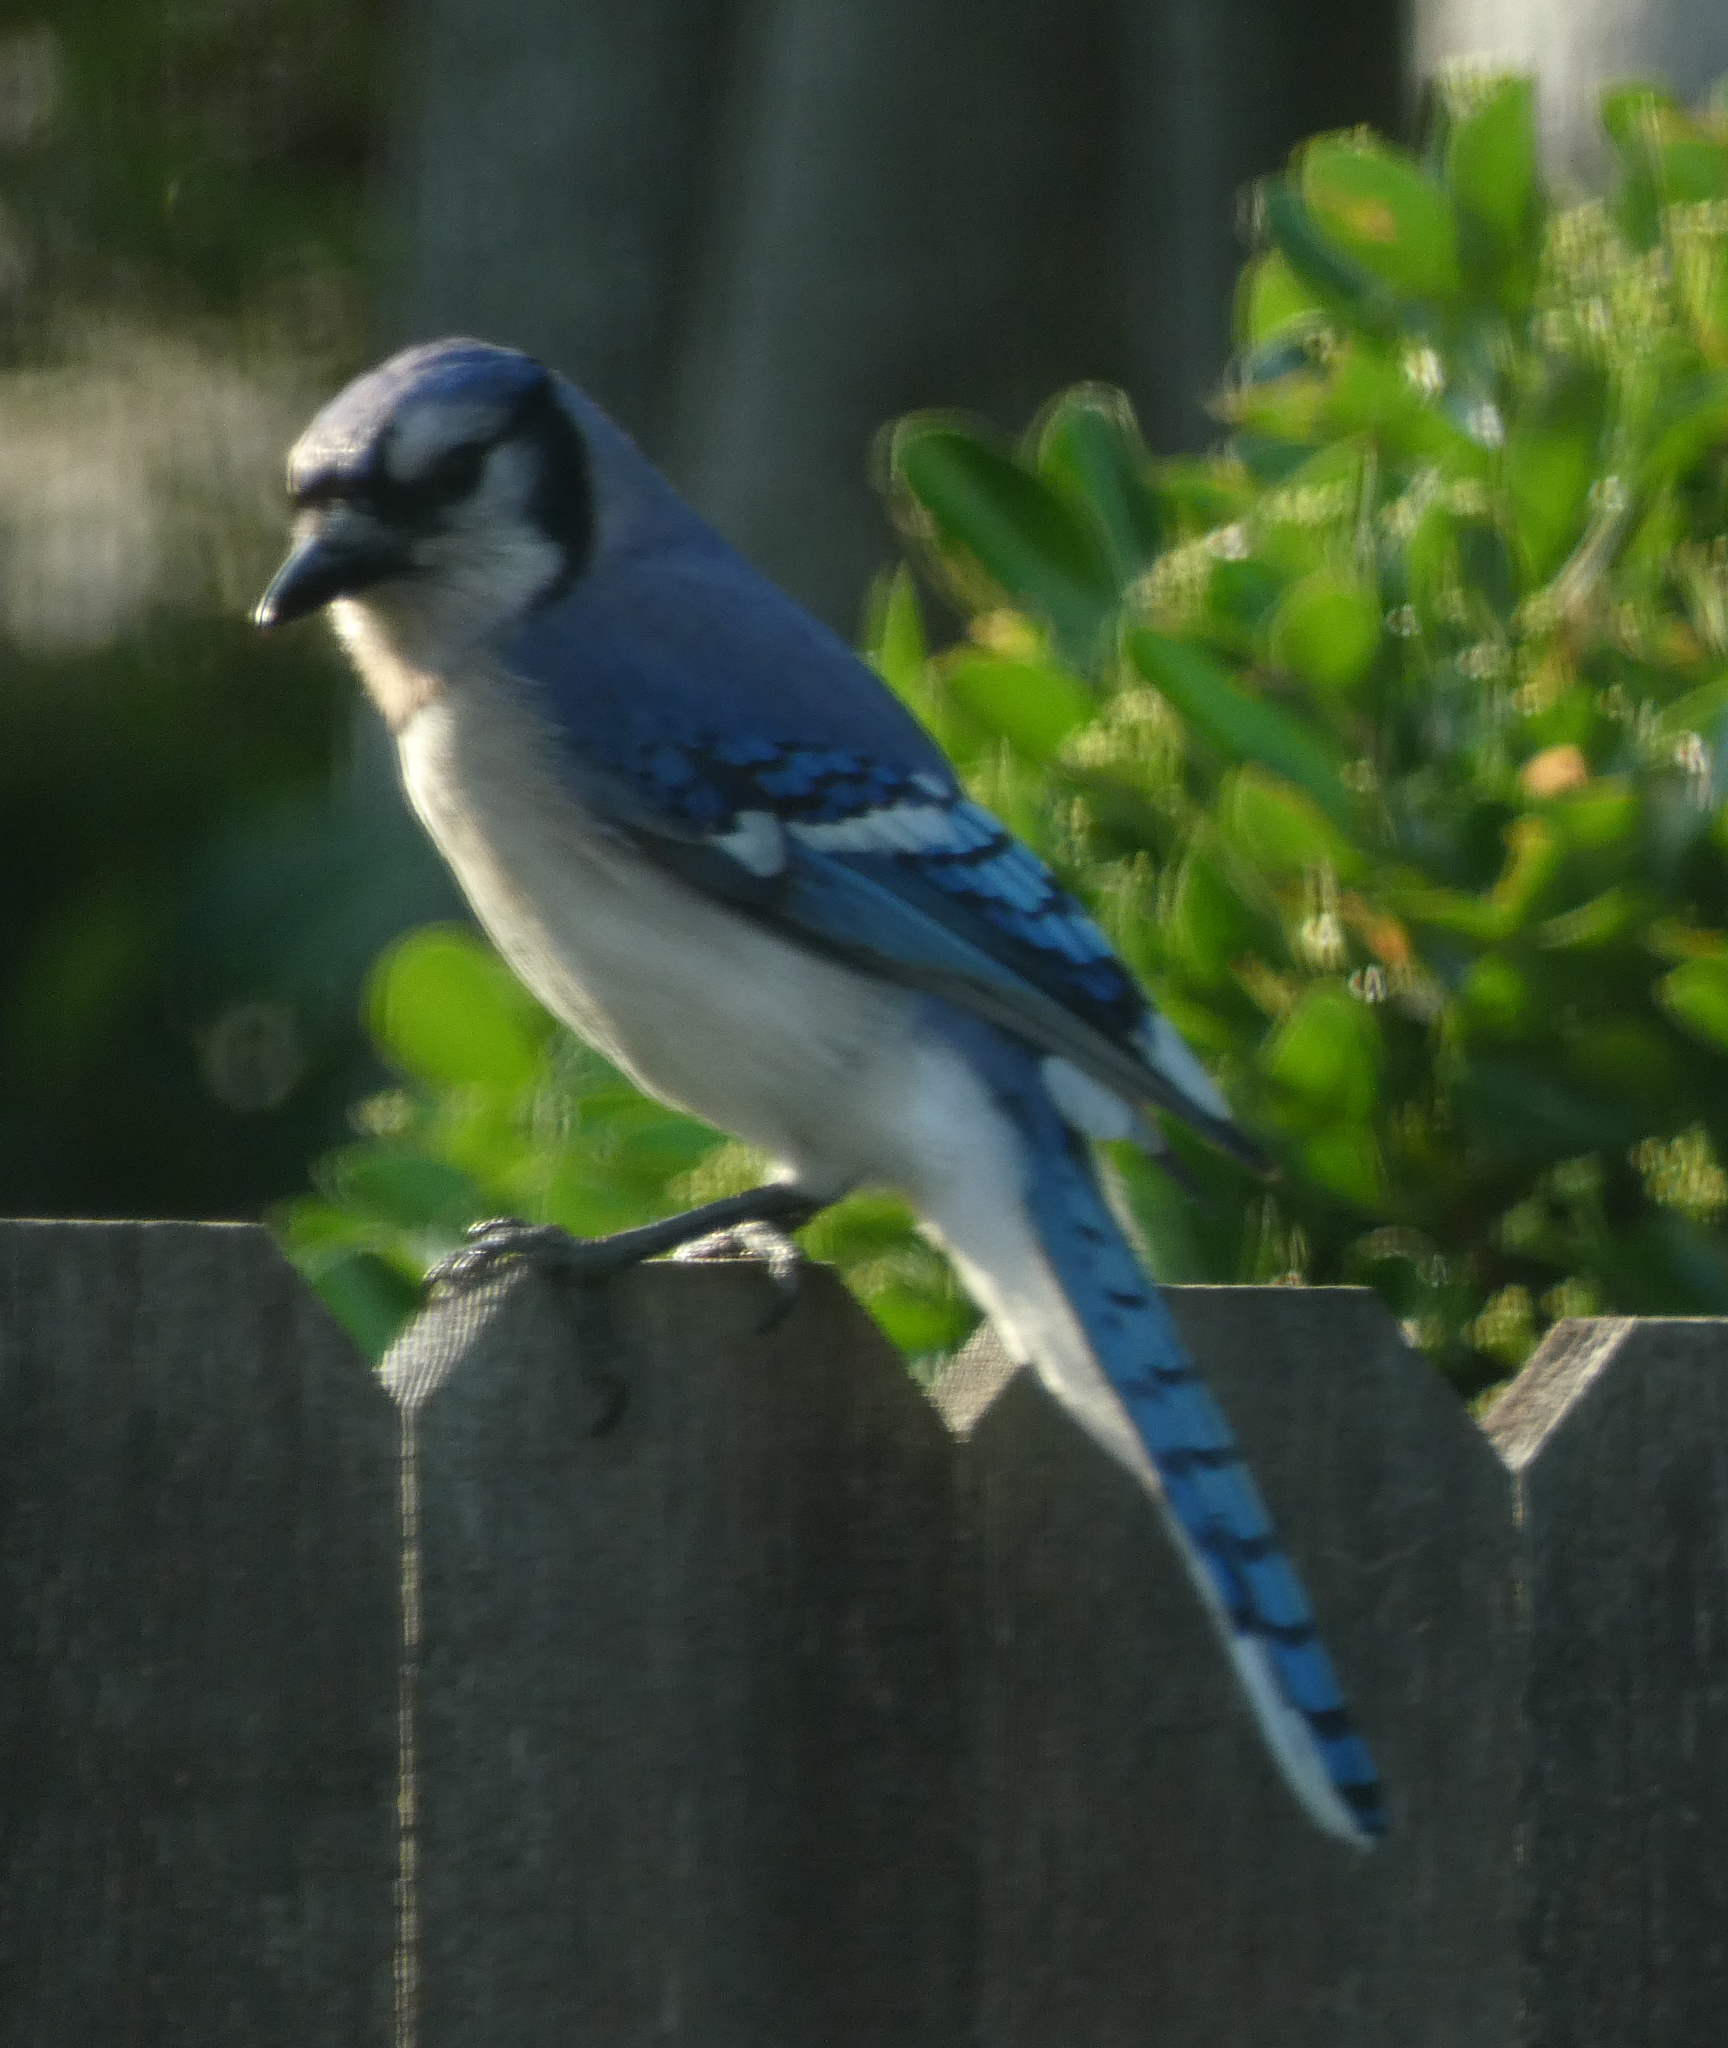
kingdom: Animalia
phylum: Chordata
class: Aves
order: Passeriformes
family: Corvidae
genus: Cyanocitta
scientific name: Cyanocitta cristata
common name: Blue jay
